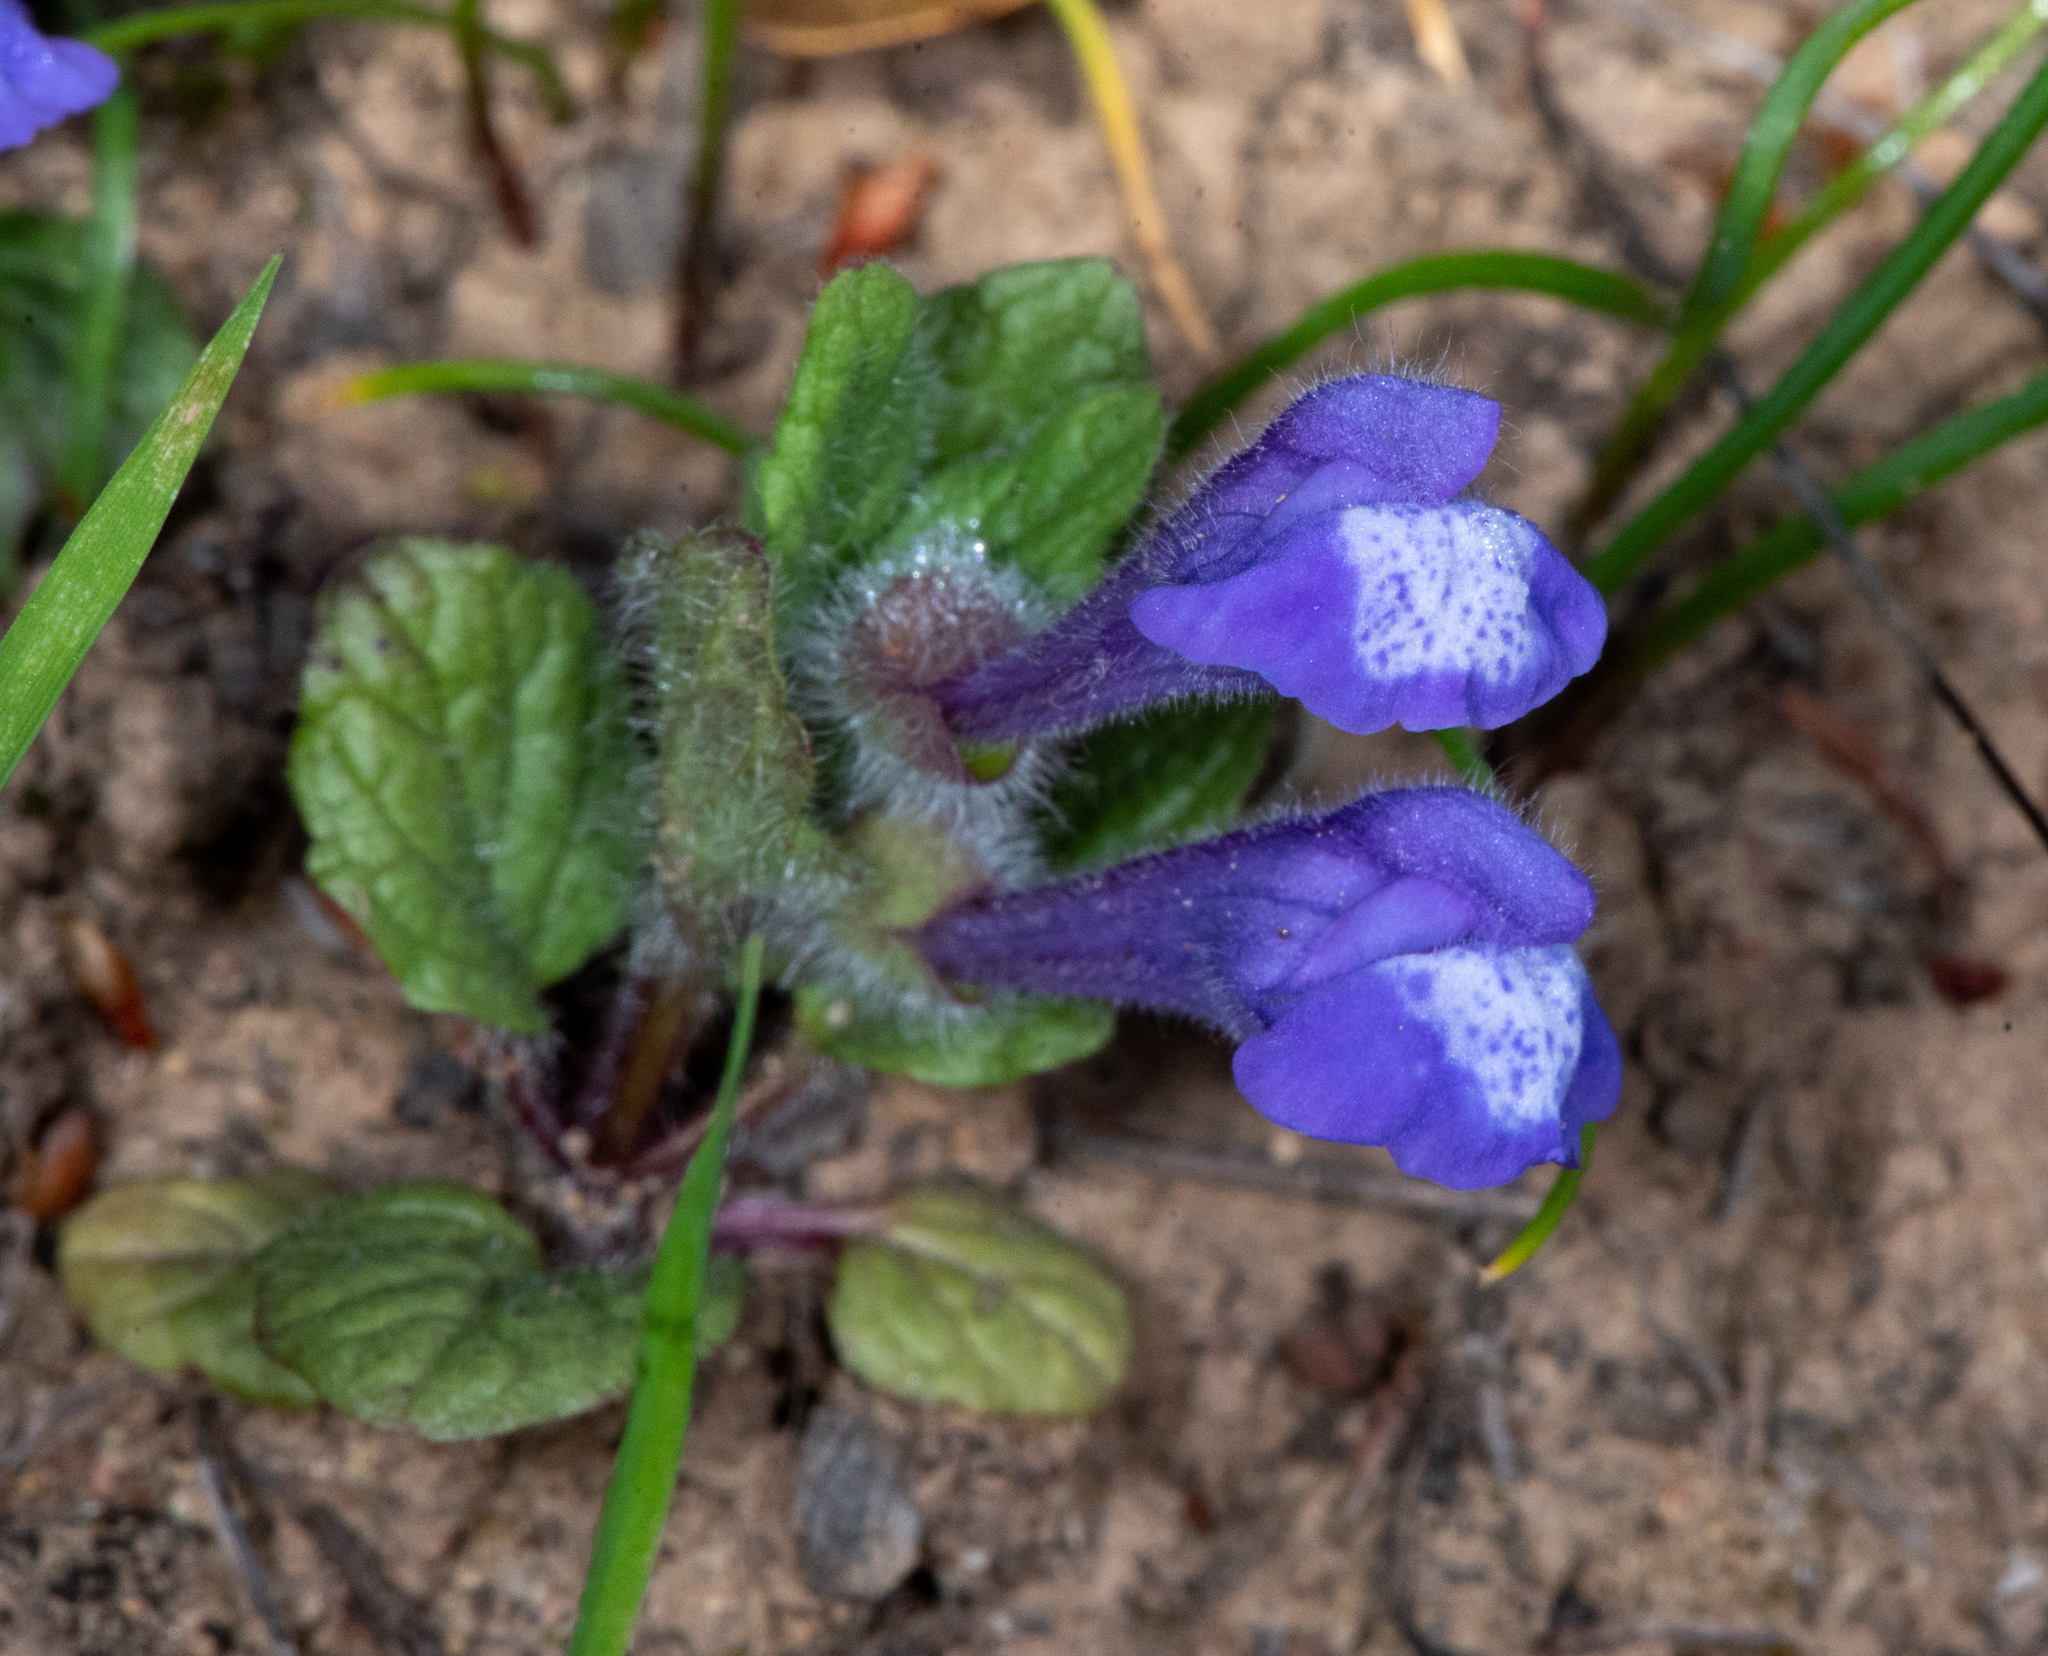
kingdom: Plantae
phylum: Tracheophyta
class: Magnoliopsida
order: Lamiales
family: Lamiaceae
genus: Scutellaria
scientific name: Scutellaria tuberosa
